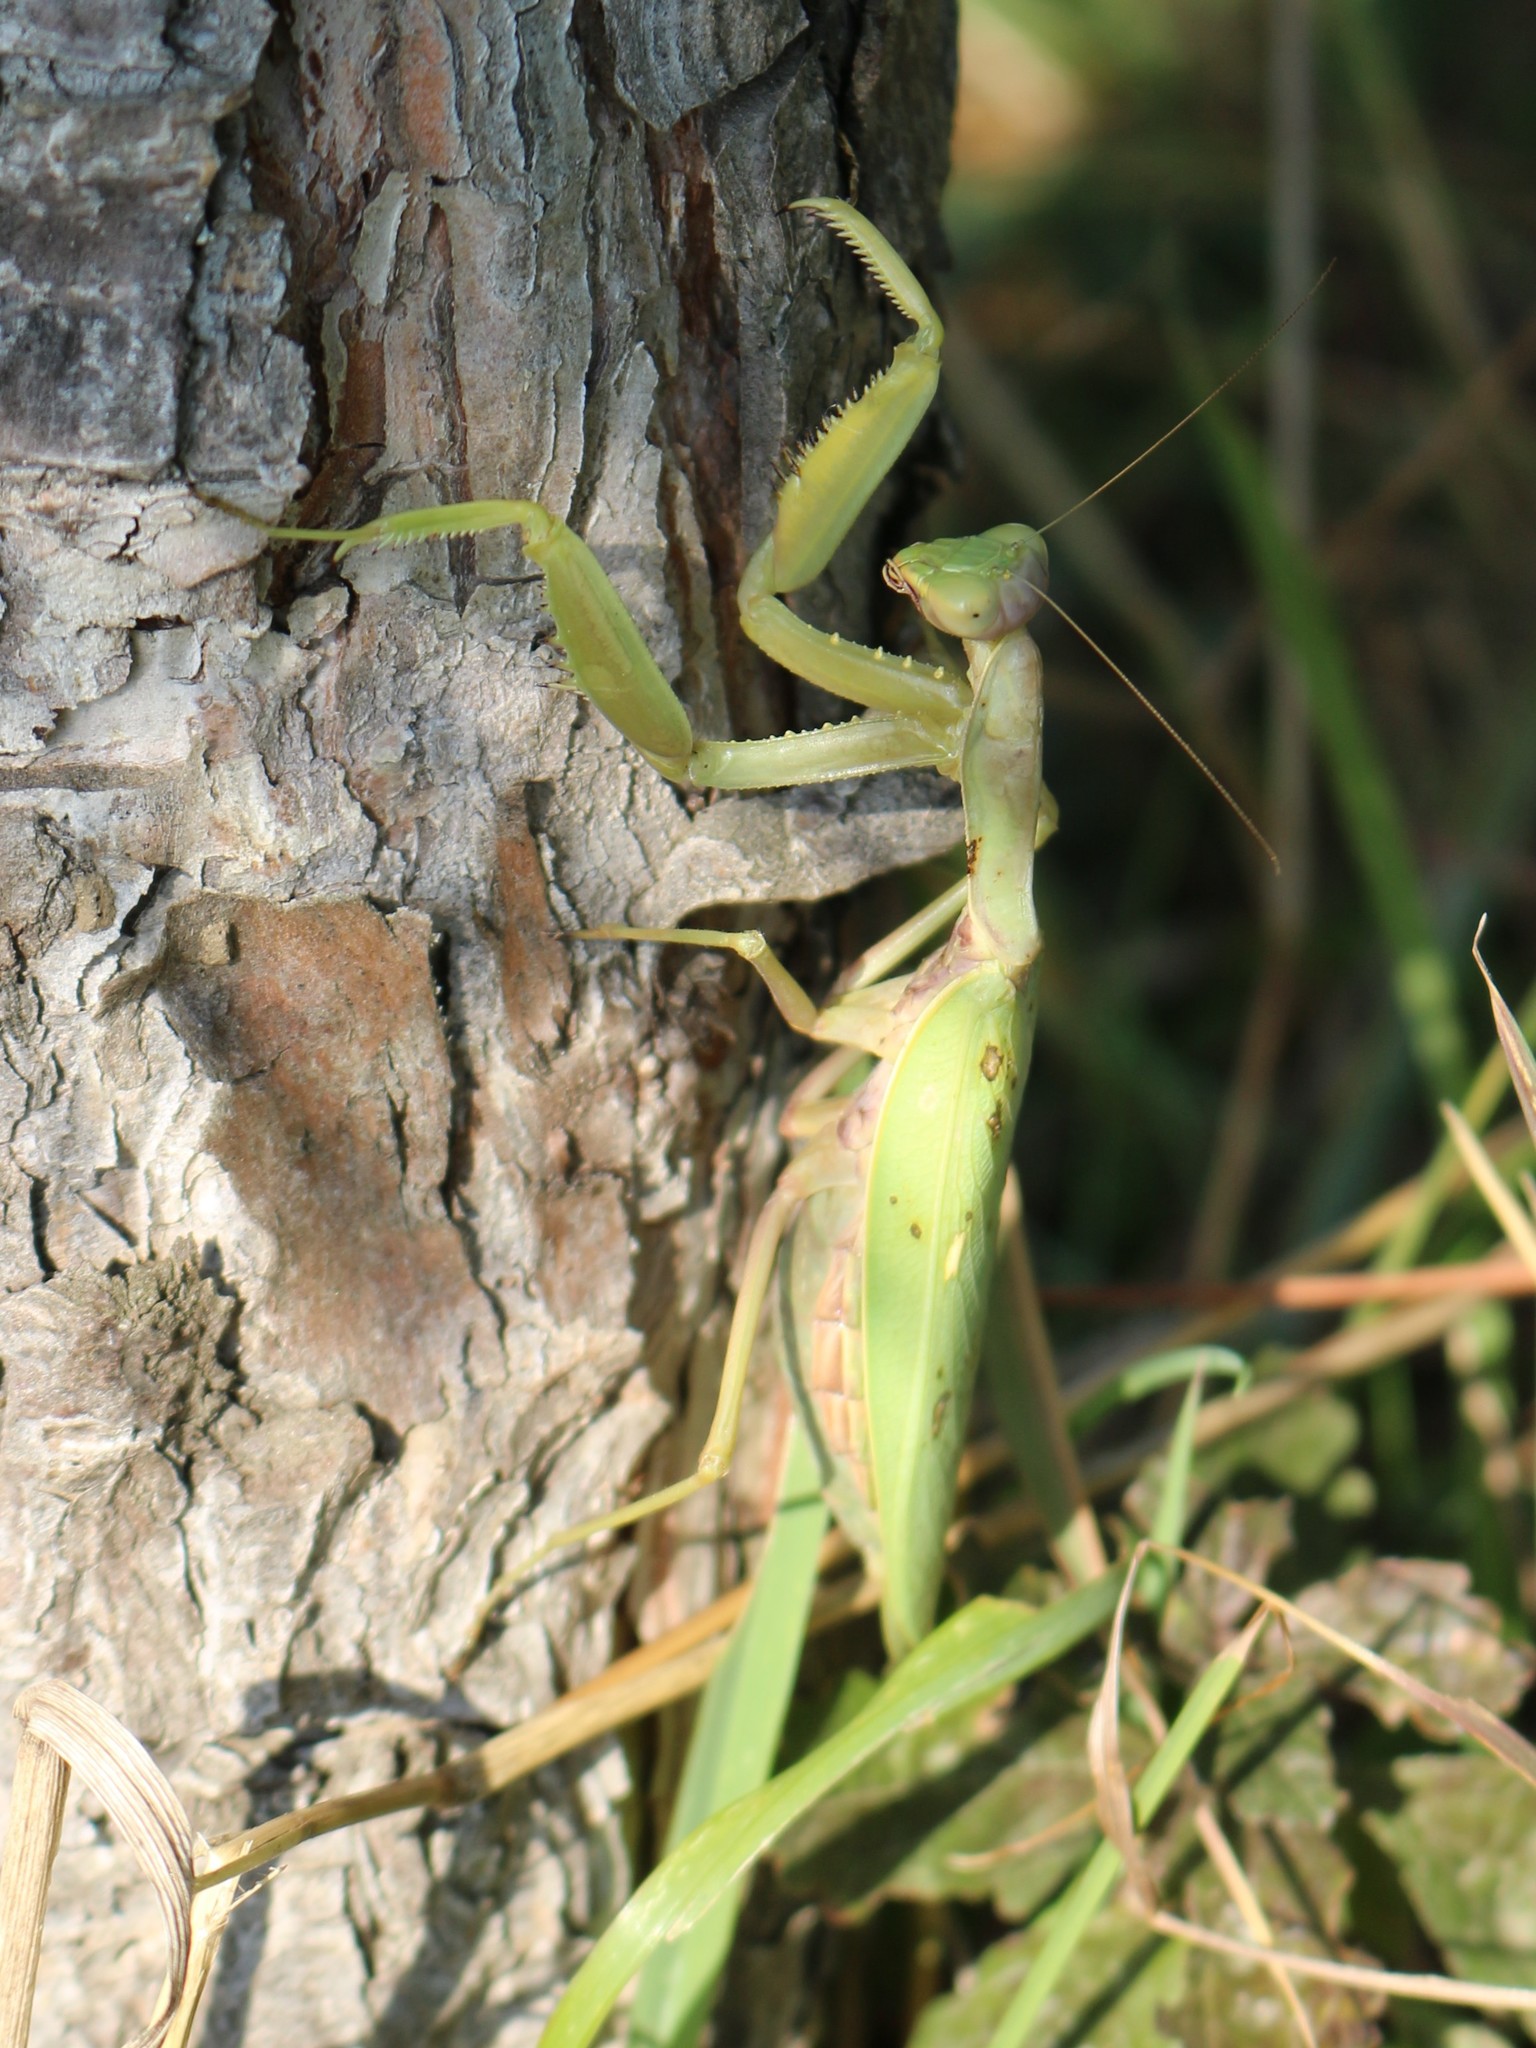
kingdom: Animalia
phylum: Arthropoda
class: Insecta
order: Mantodea
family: Mantidae
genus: Hierodula
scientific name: Hierodula transcaucasica
